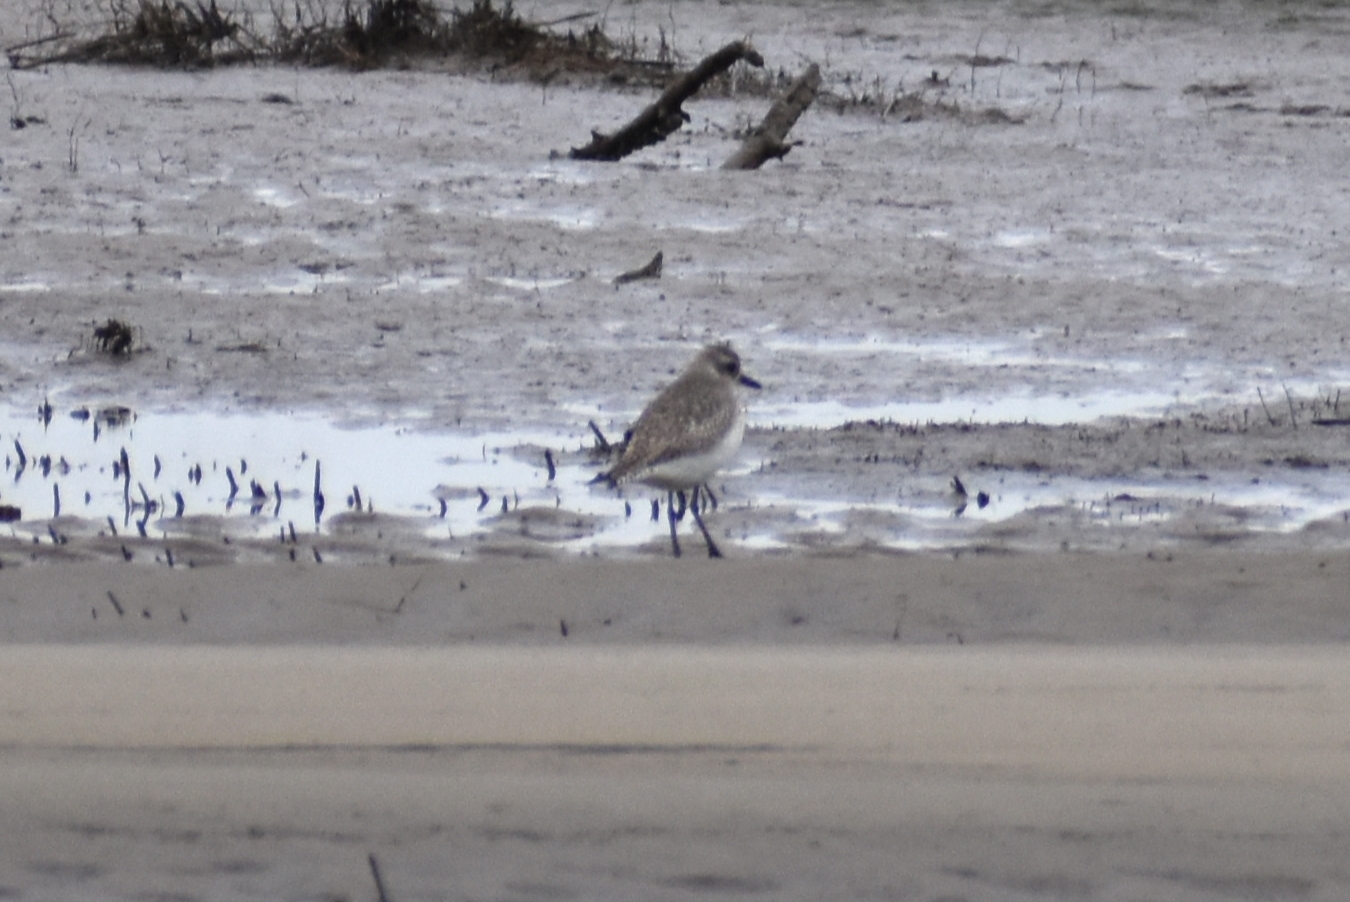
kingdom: Animalia
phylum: Chordata
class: Aves
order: Charadriiformes
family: Charadriidae
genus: Pluvialis
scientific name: Pluvialis squatarola
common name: Grey plover
